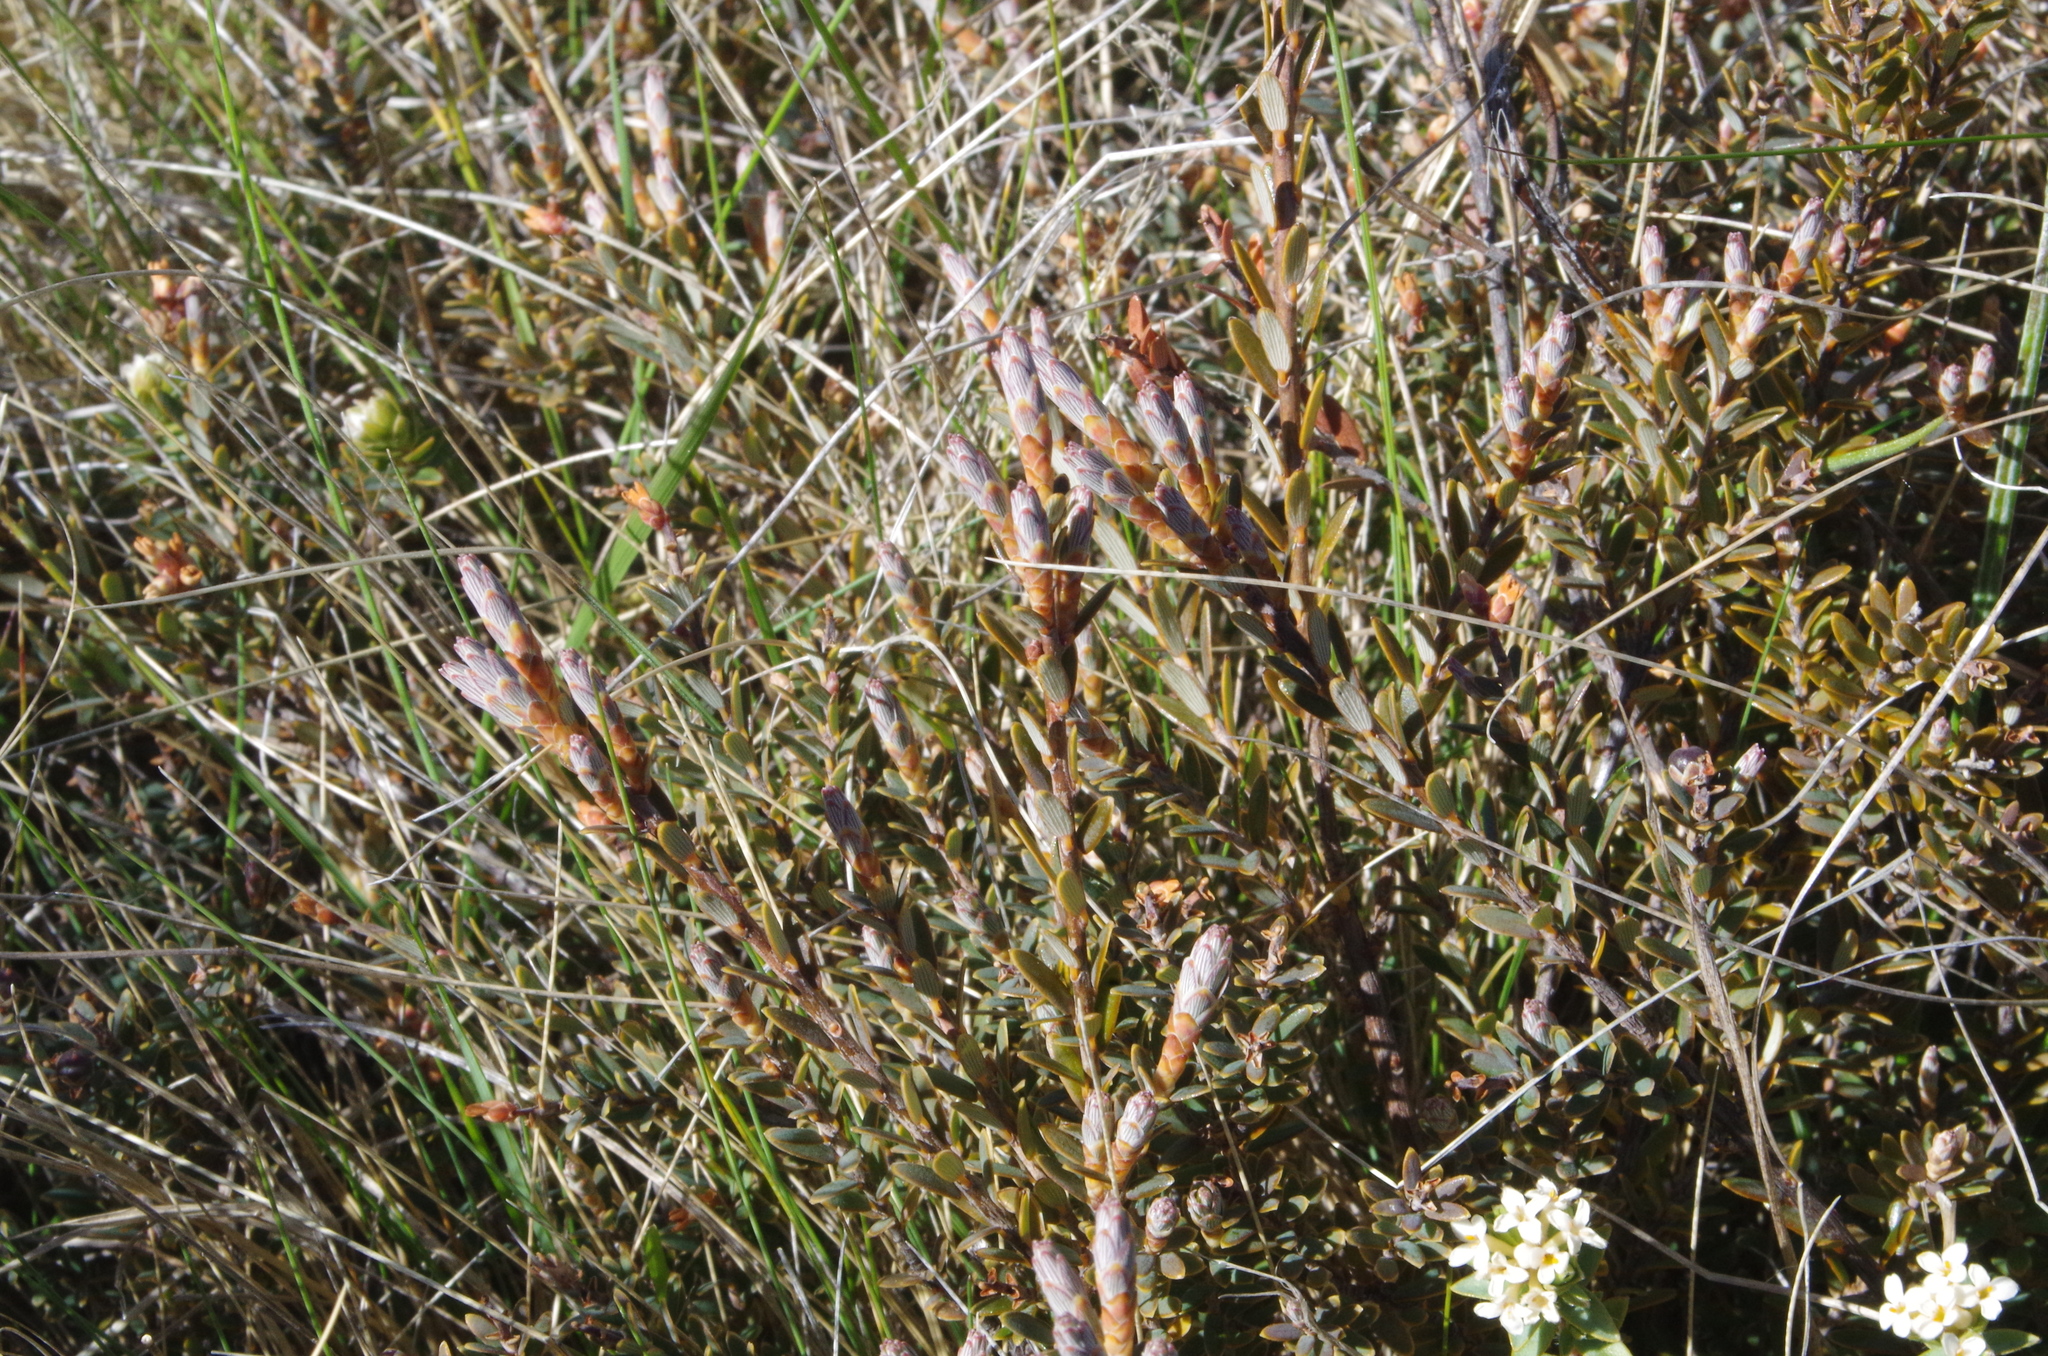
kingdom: Plantae
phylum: Tracheophyta
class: Magnoliopsida
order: Ericales
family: Ericaceae
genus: Acrothamnus
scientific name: Acrothamnus colensoi
